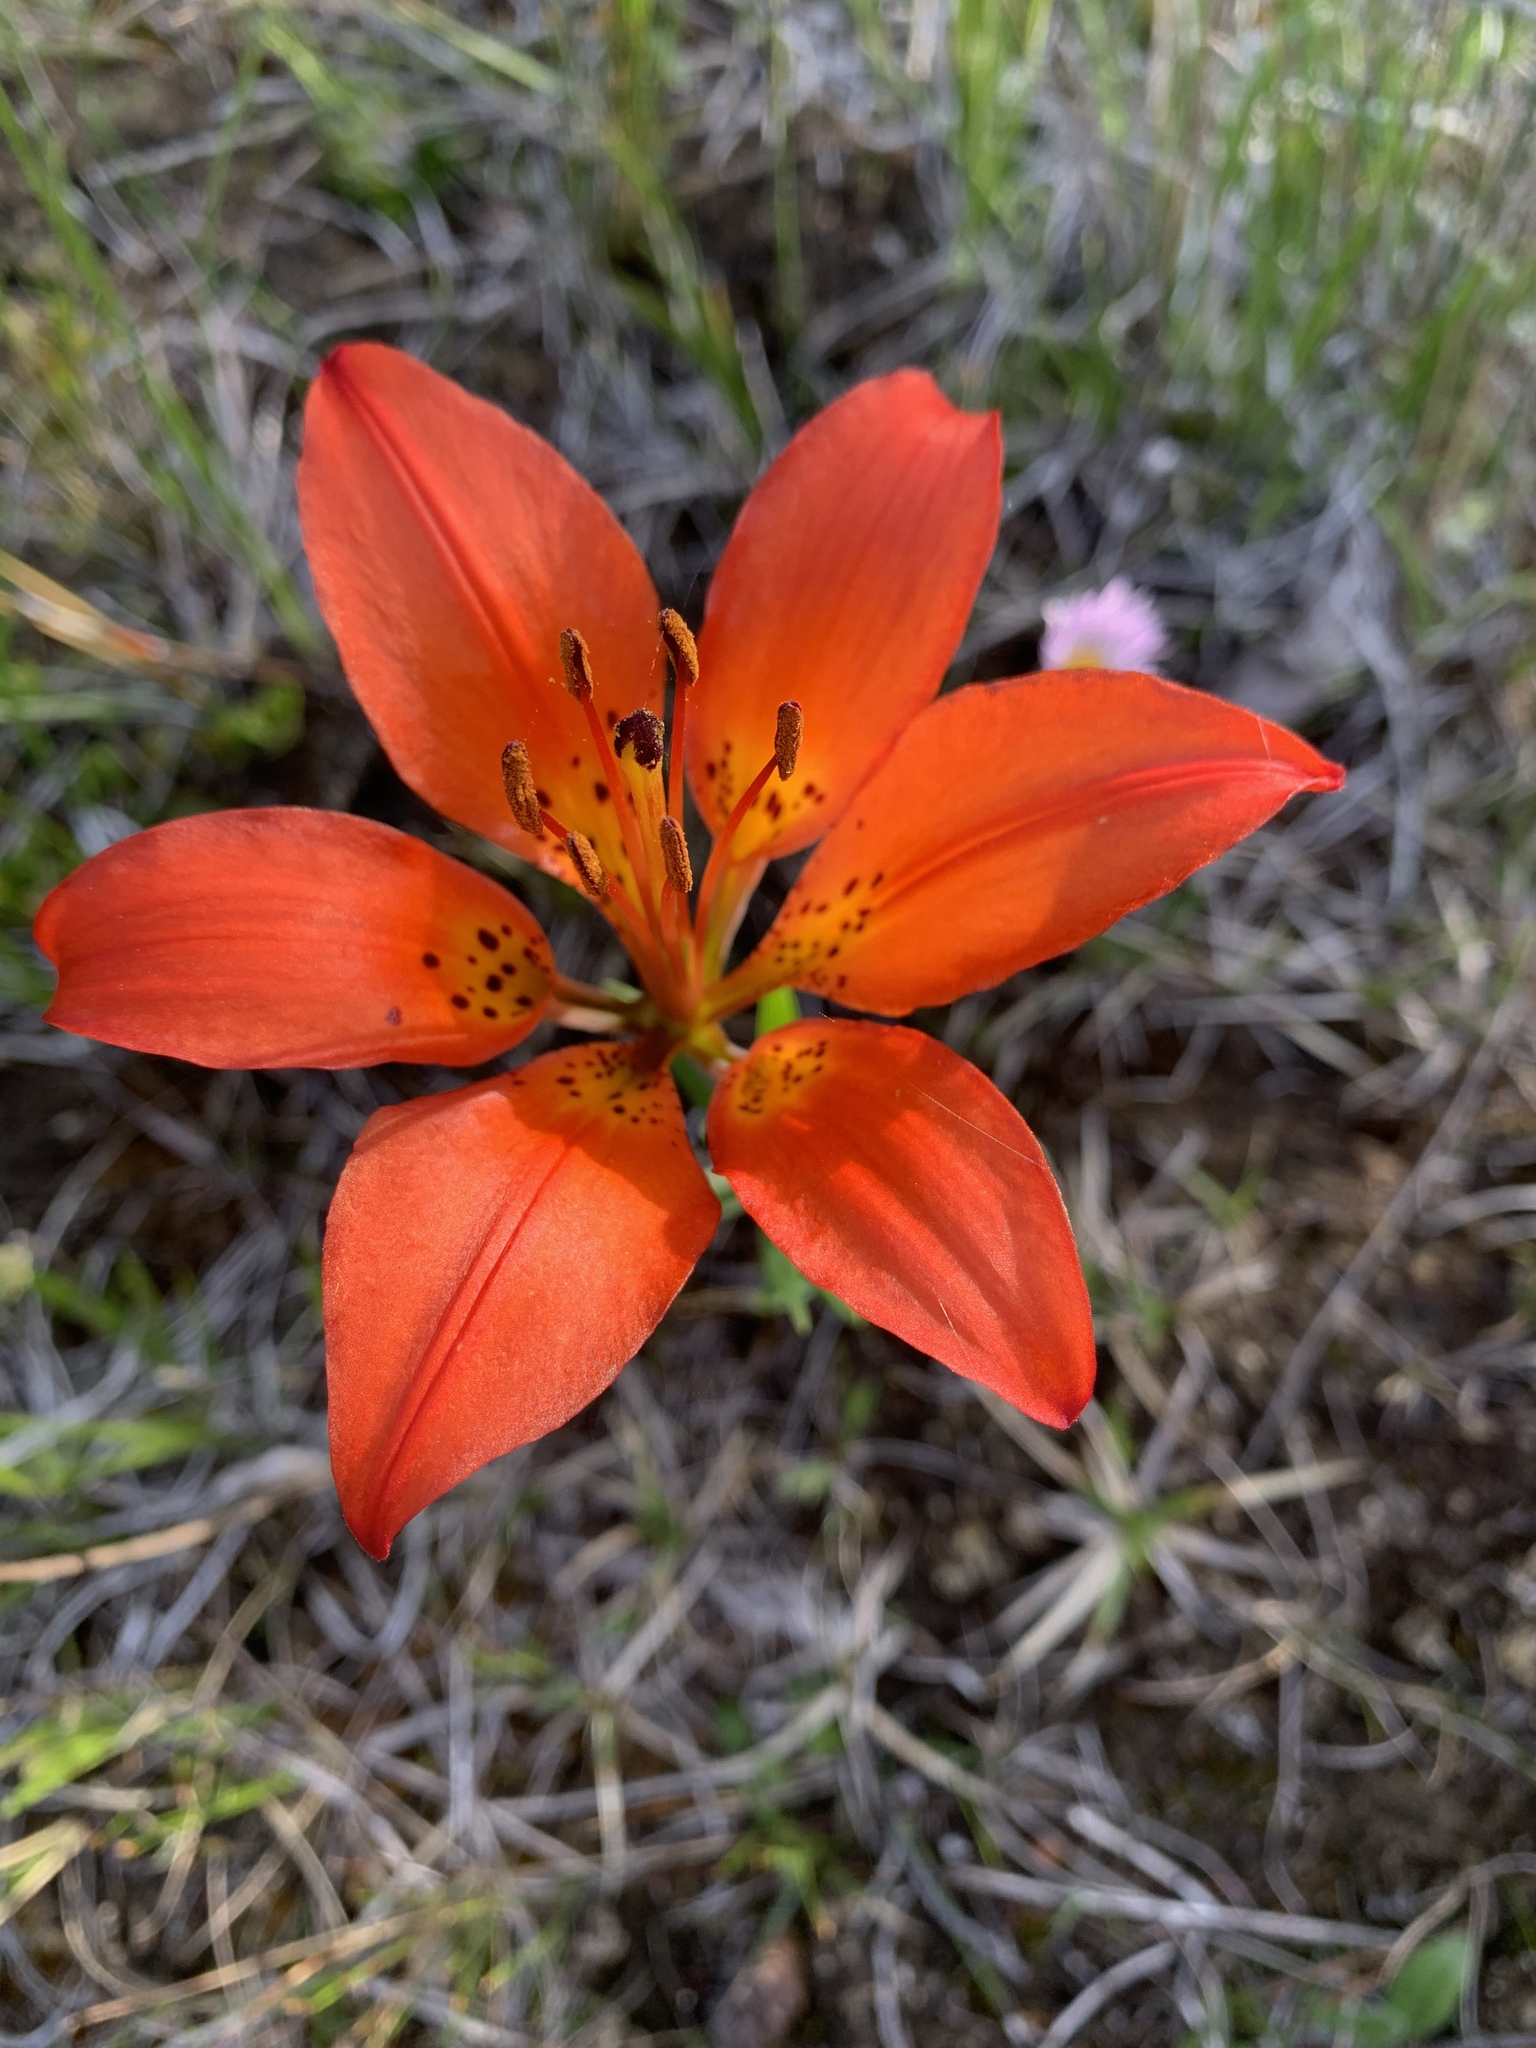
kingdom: Plantae
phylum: Tracheophyta
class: Liliopsida
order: Liliales
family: Liliaceae
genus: Lilium
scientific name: Lilium philadelphicum
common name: Red lily
